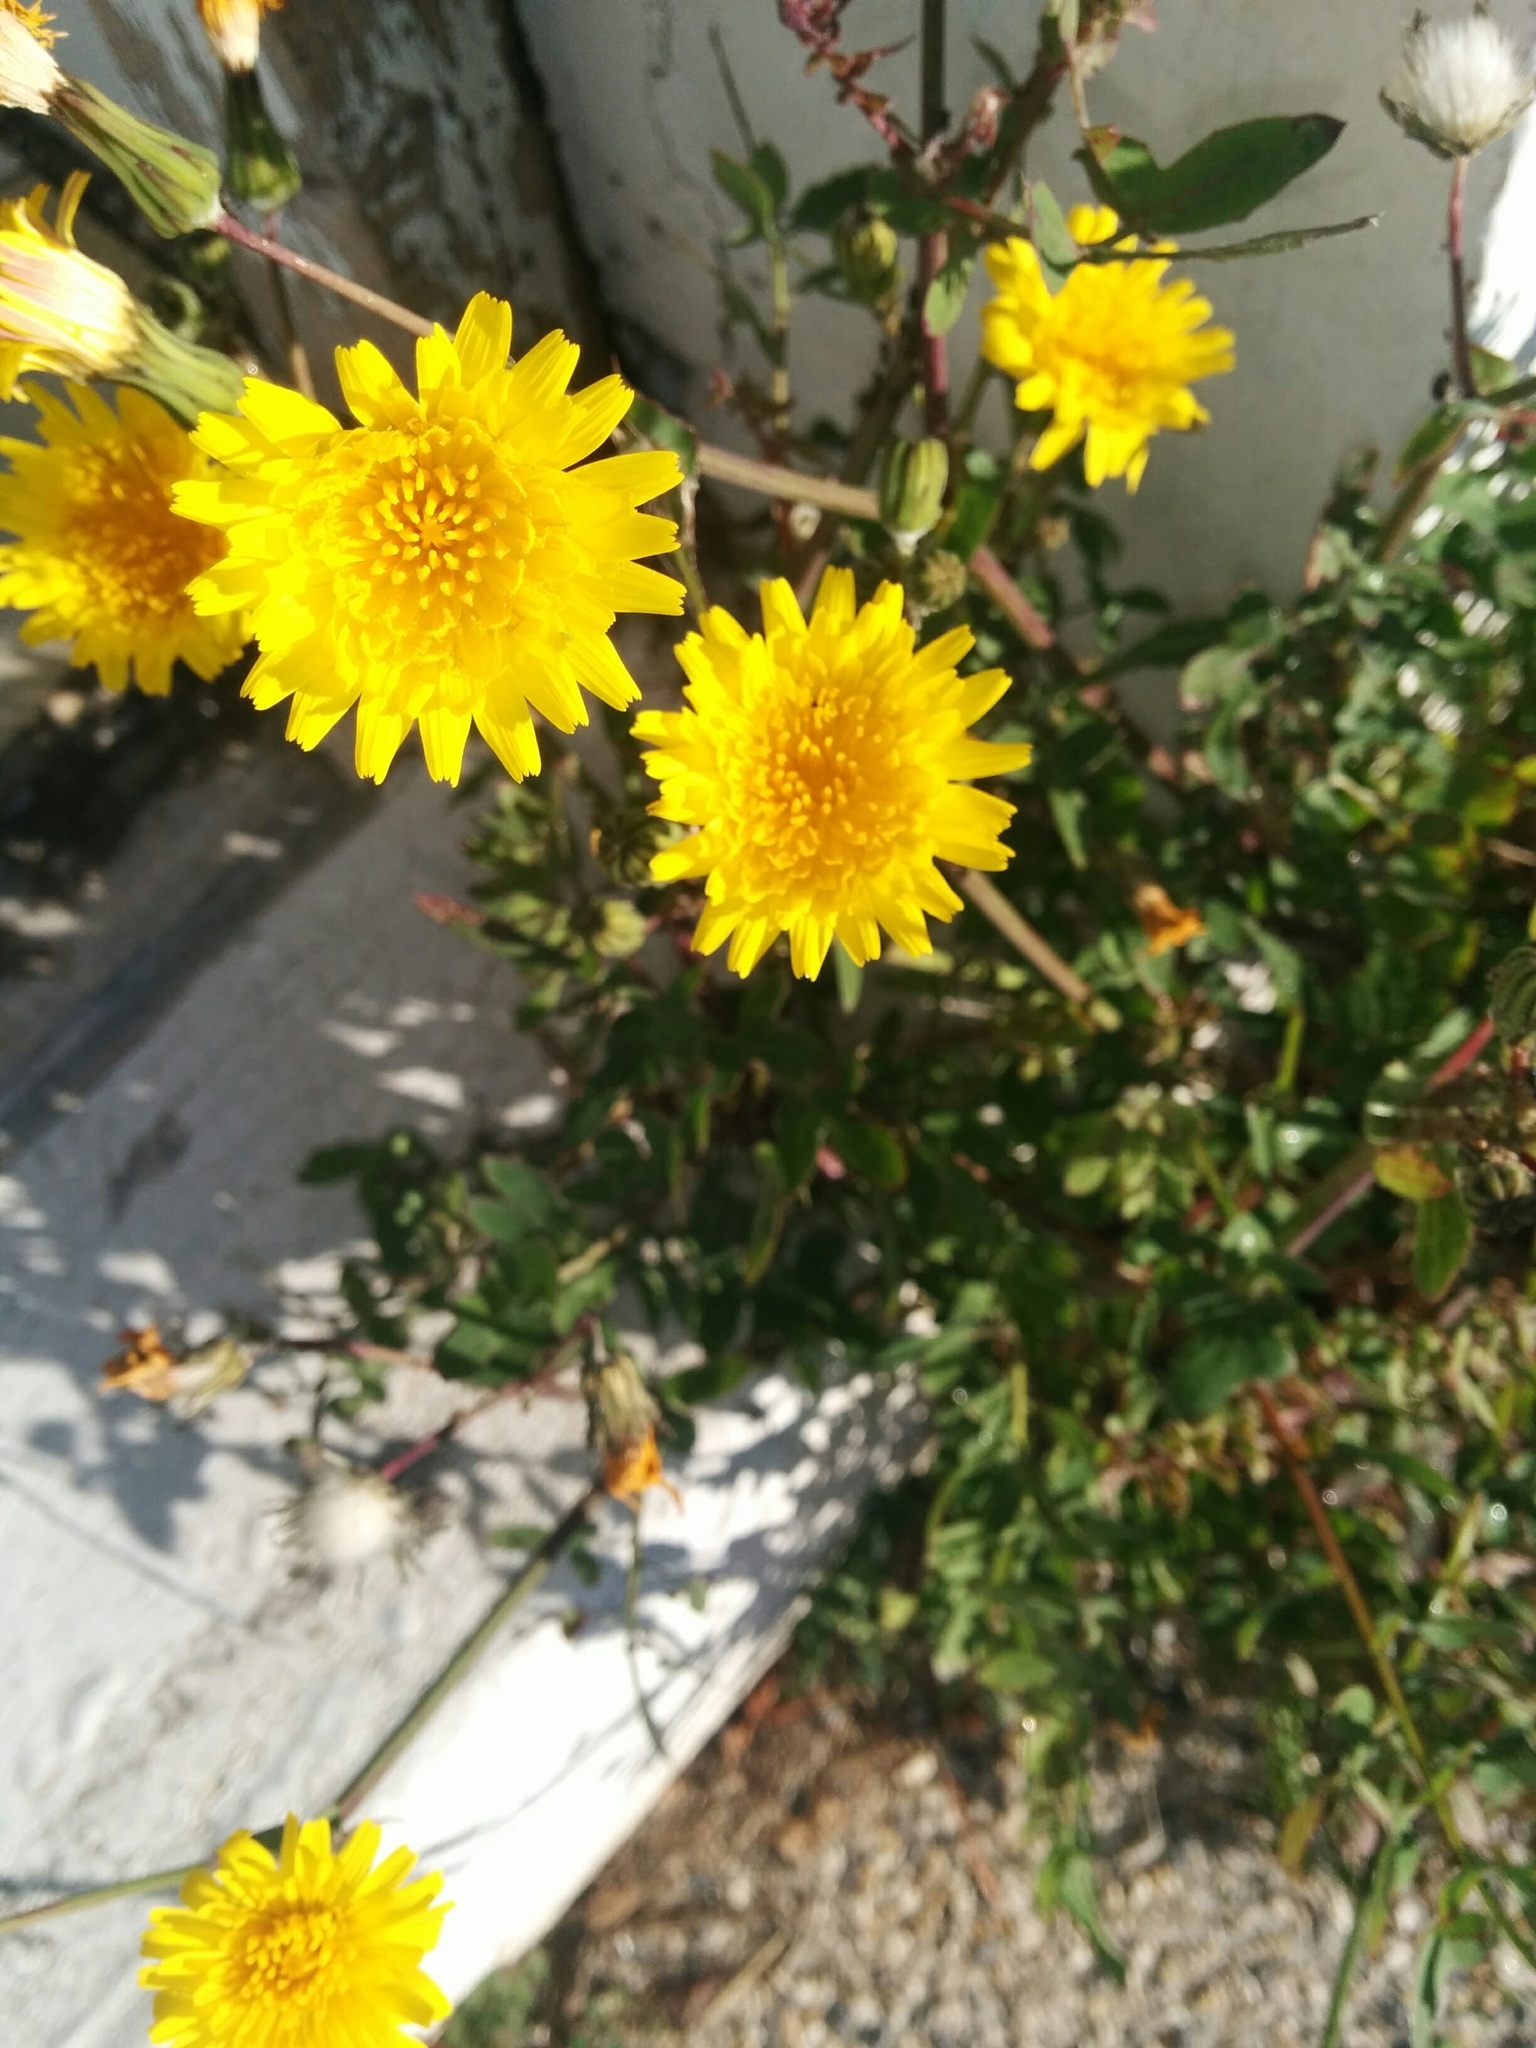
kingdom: Plantae
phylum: Tracheophyta
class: Magnoliopsida
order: Asterales
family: Asteraceae
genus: Sonchus
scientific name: Sonchus tenerrimus
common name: Clammy sowthistle
